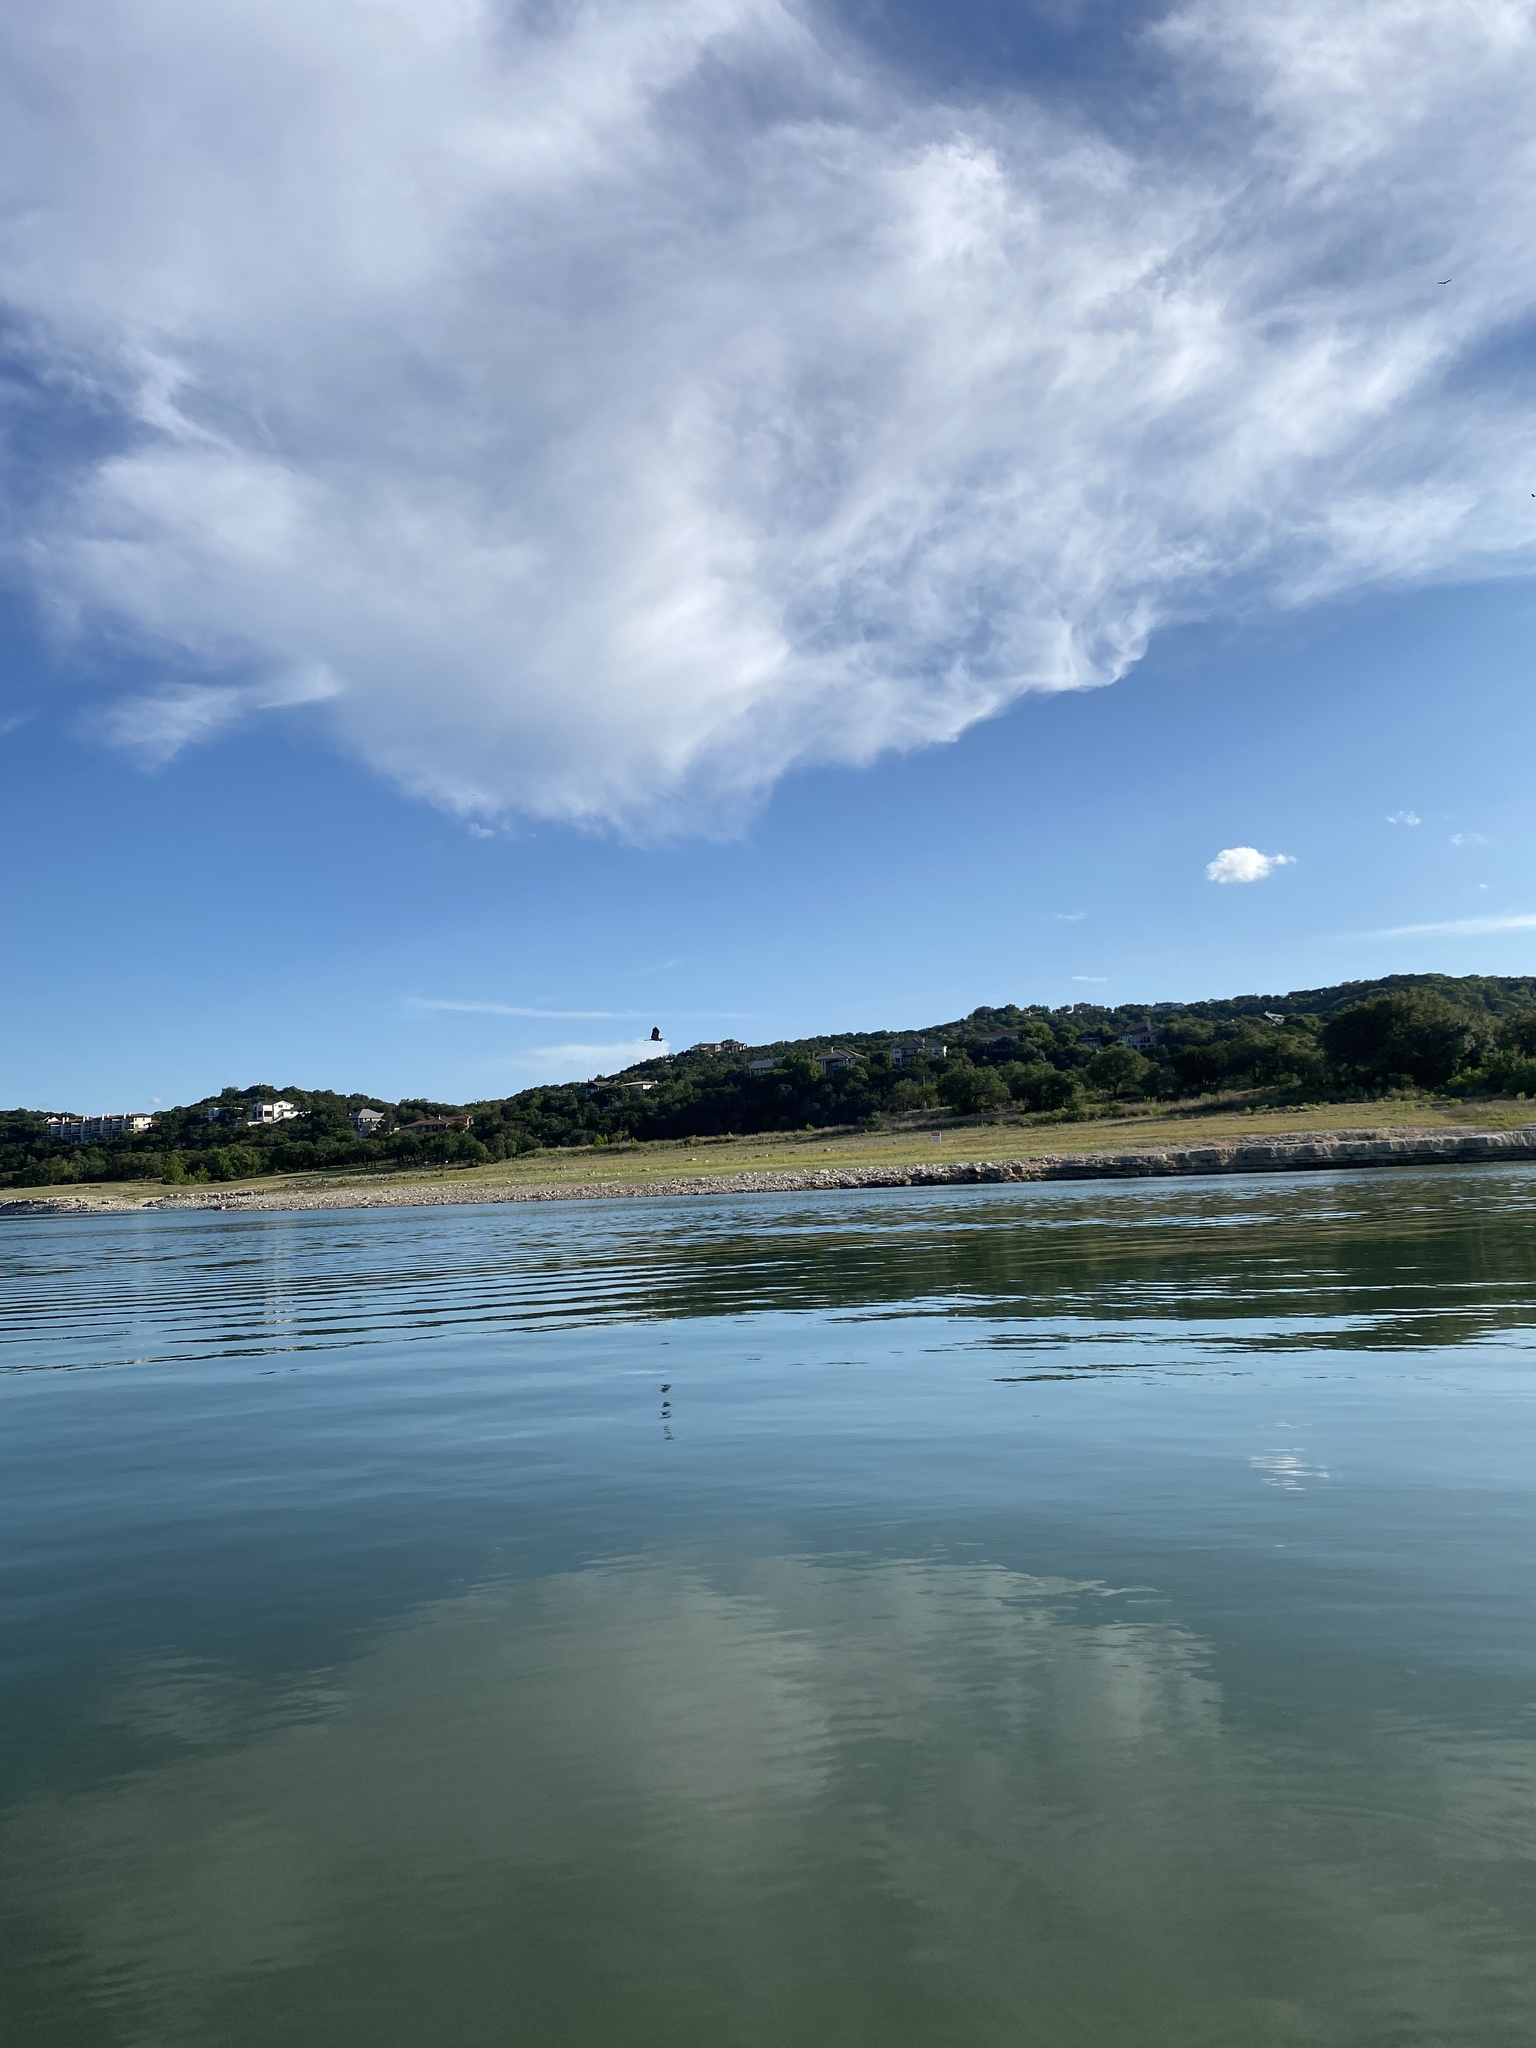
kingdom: Animalia
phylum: Chordata
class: Aves
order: Pelecaniformes
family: Ardeidae
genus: Ardea
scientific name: Ardea herodias
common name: Great blue heron
